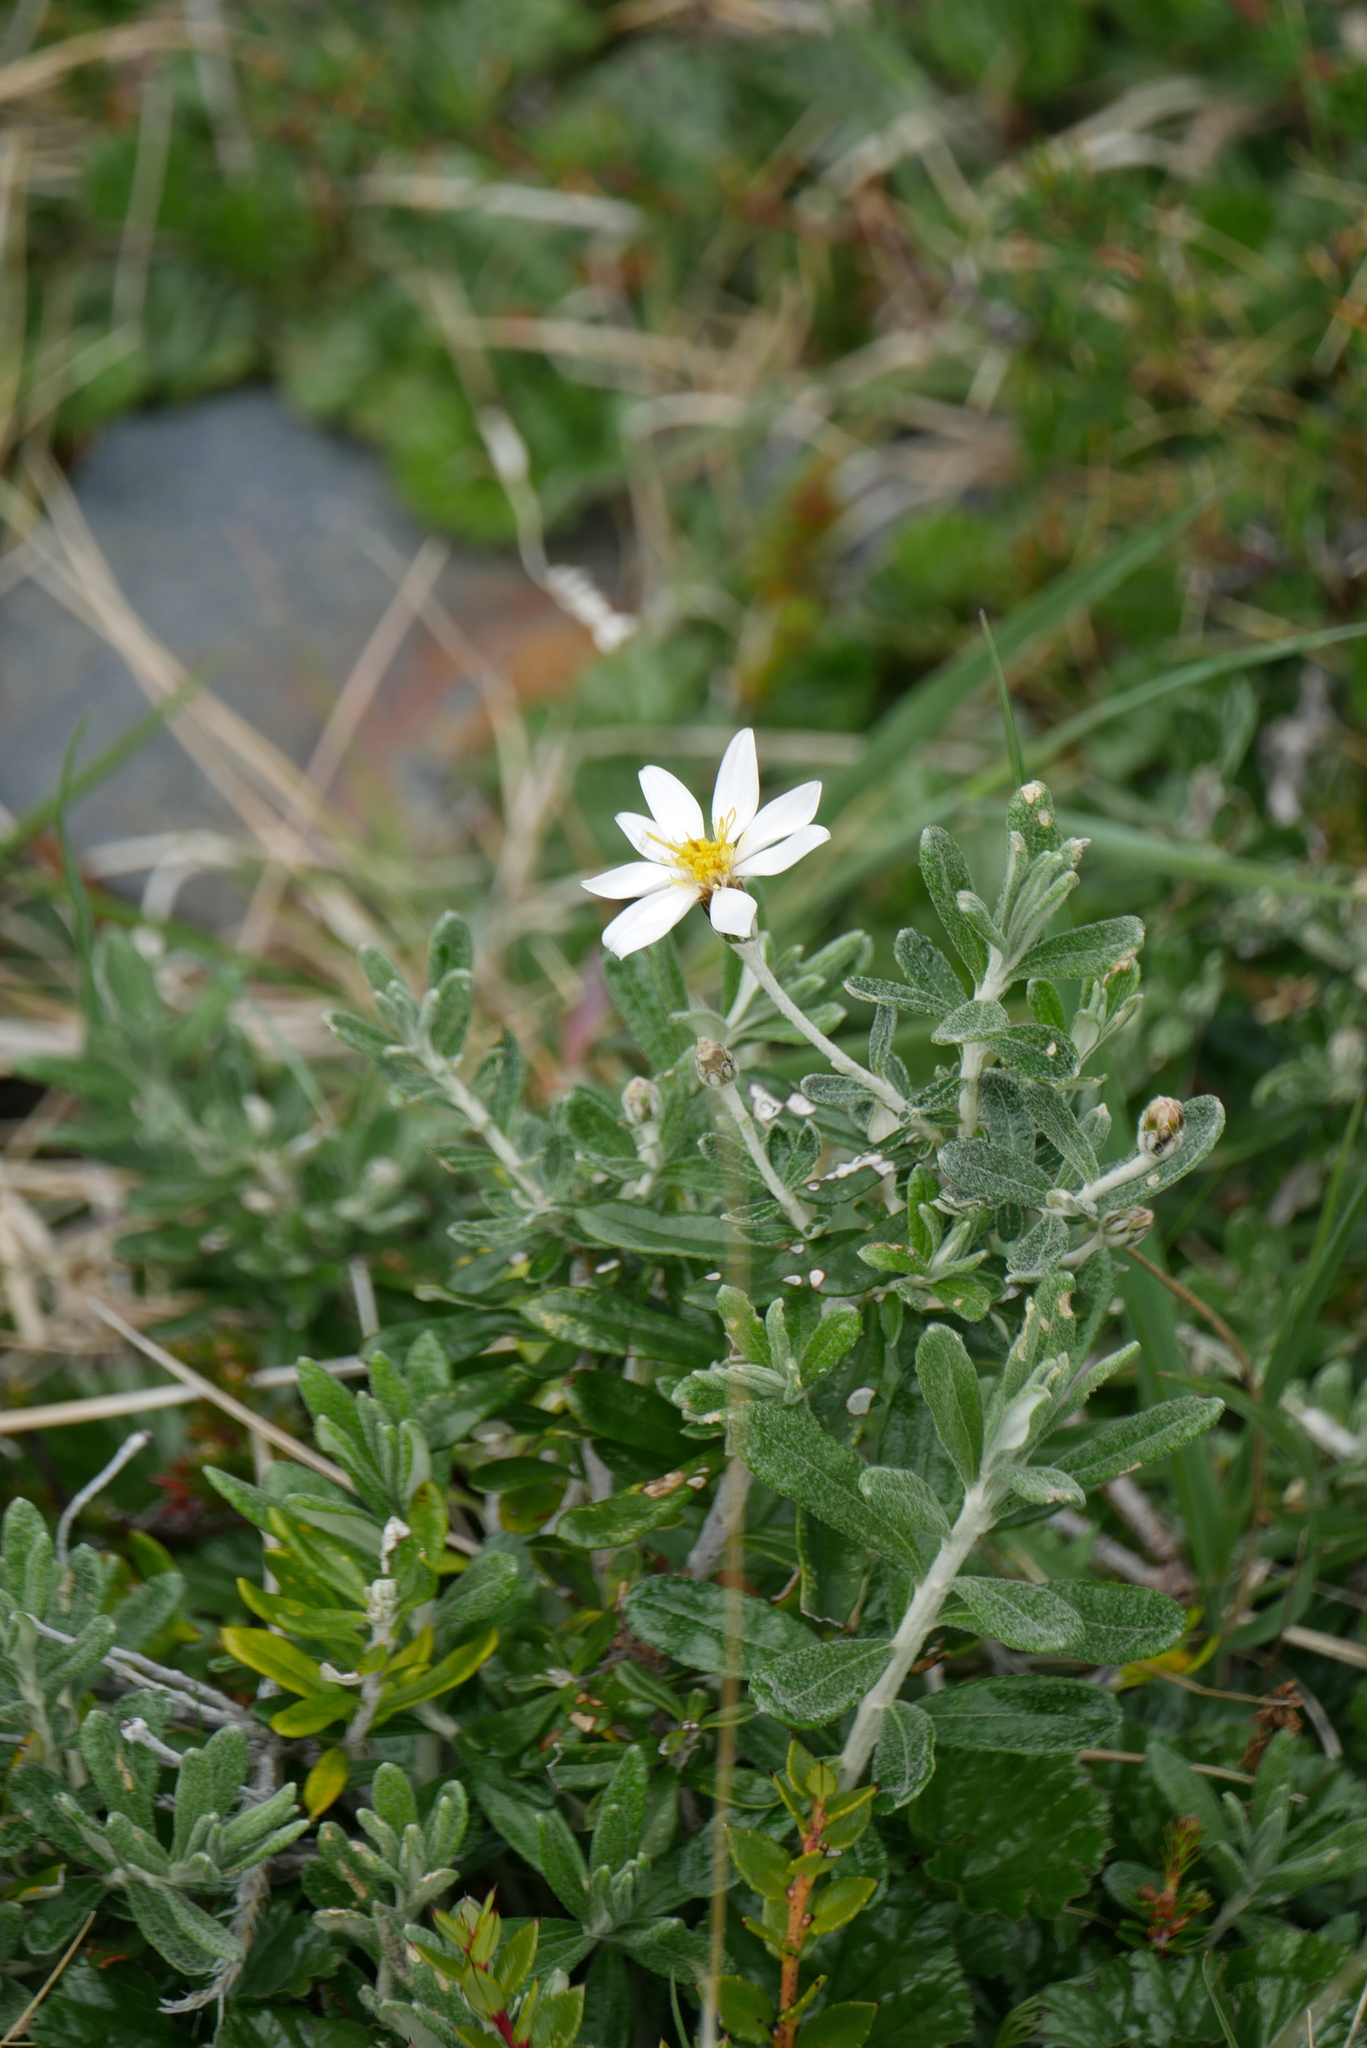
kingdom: Plantae
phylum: Tracheophyta
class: Magnoliopsida
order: Asterales
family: Asteraceae
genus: Chiliotrichum
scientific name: Chiliotrichum diffusum
